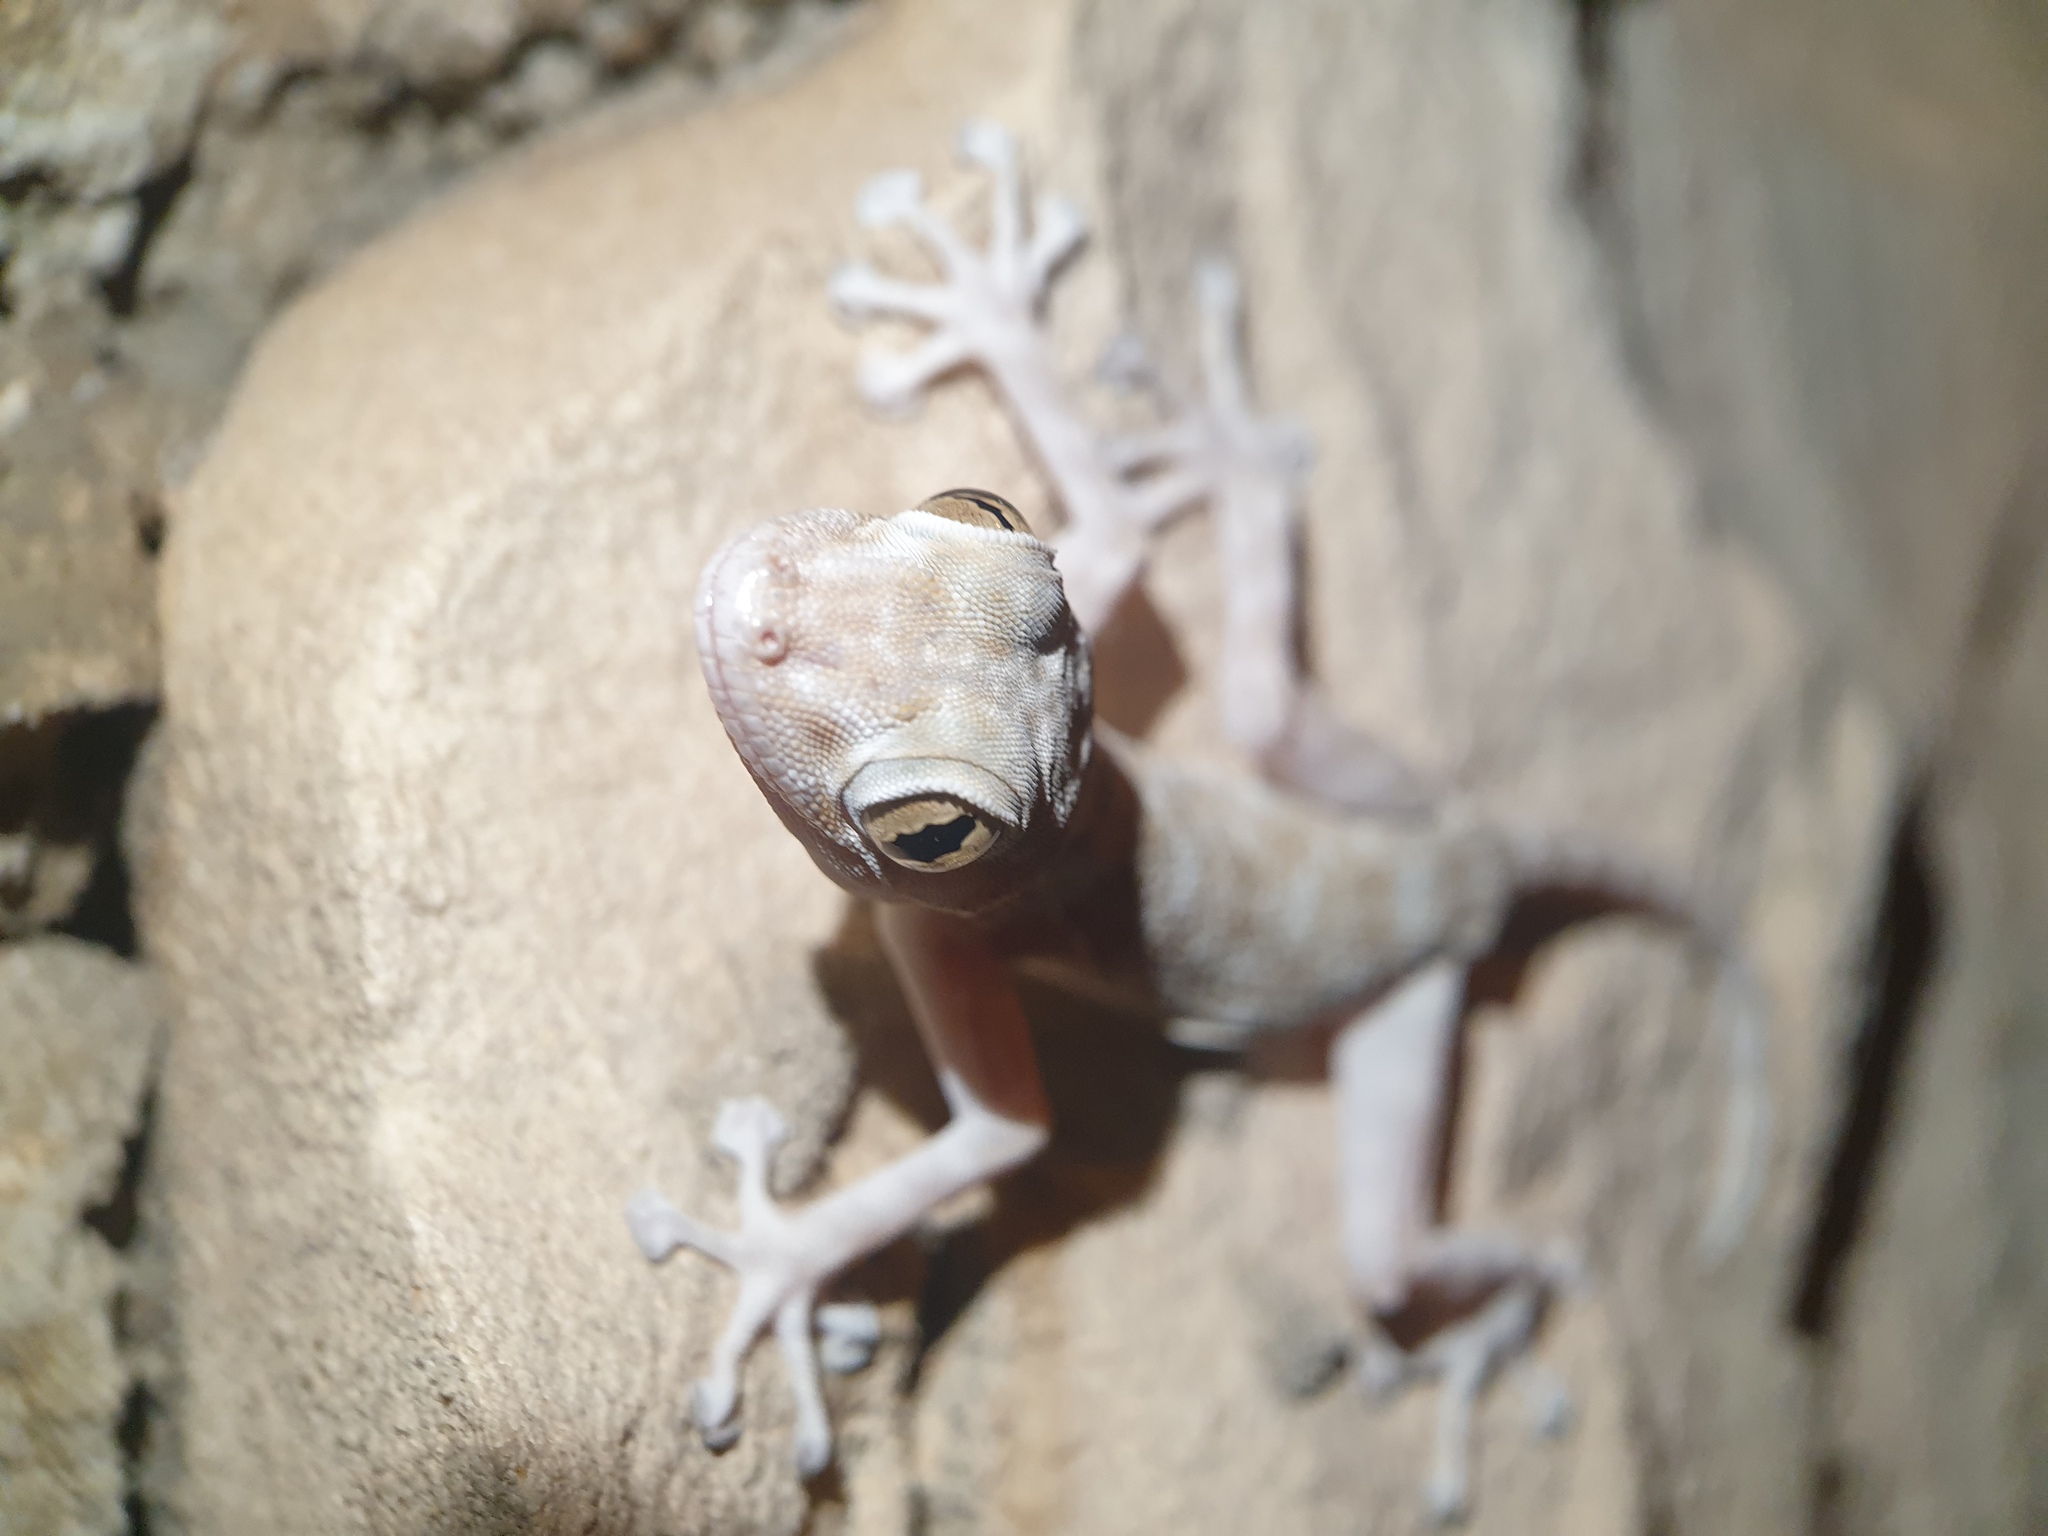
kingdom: Animalia
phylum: Chordata
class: Squamata
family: Phyllodactylidae
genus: Ptyodactylus
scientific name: Ptyodactylus guttatus
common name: Sinai fan-fingered gecko
